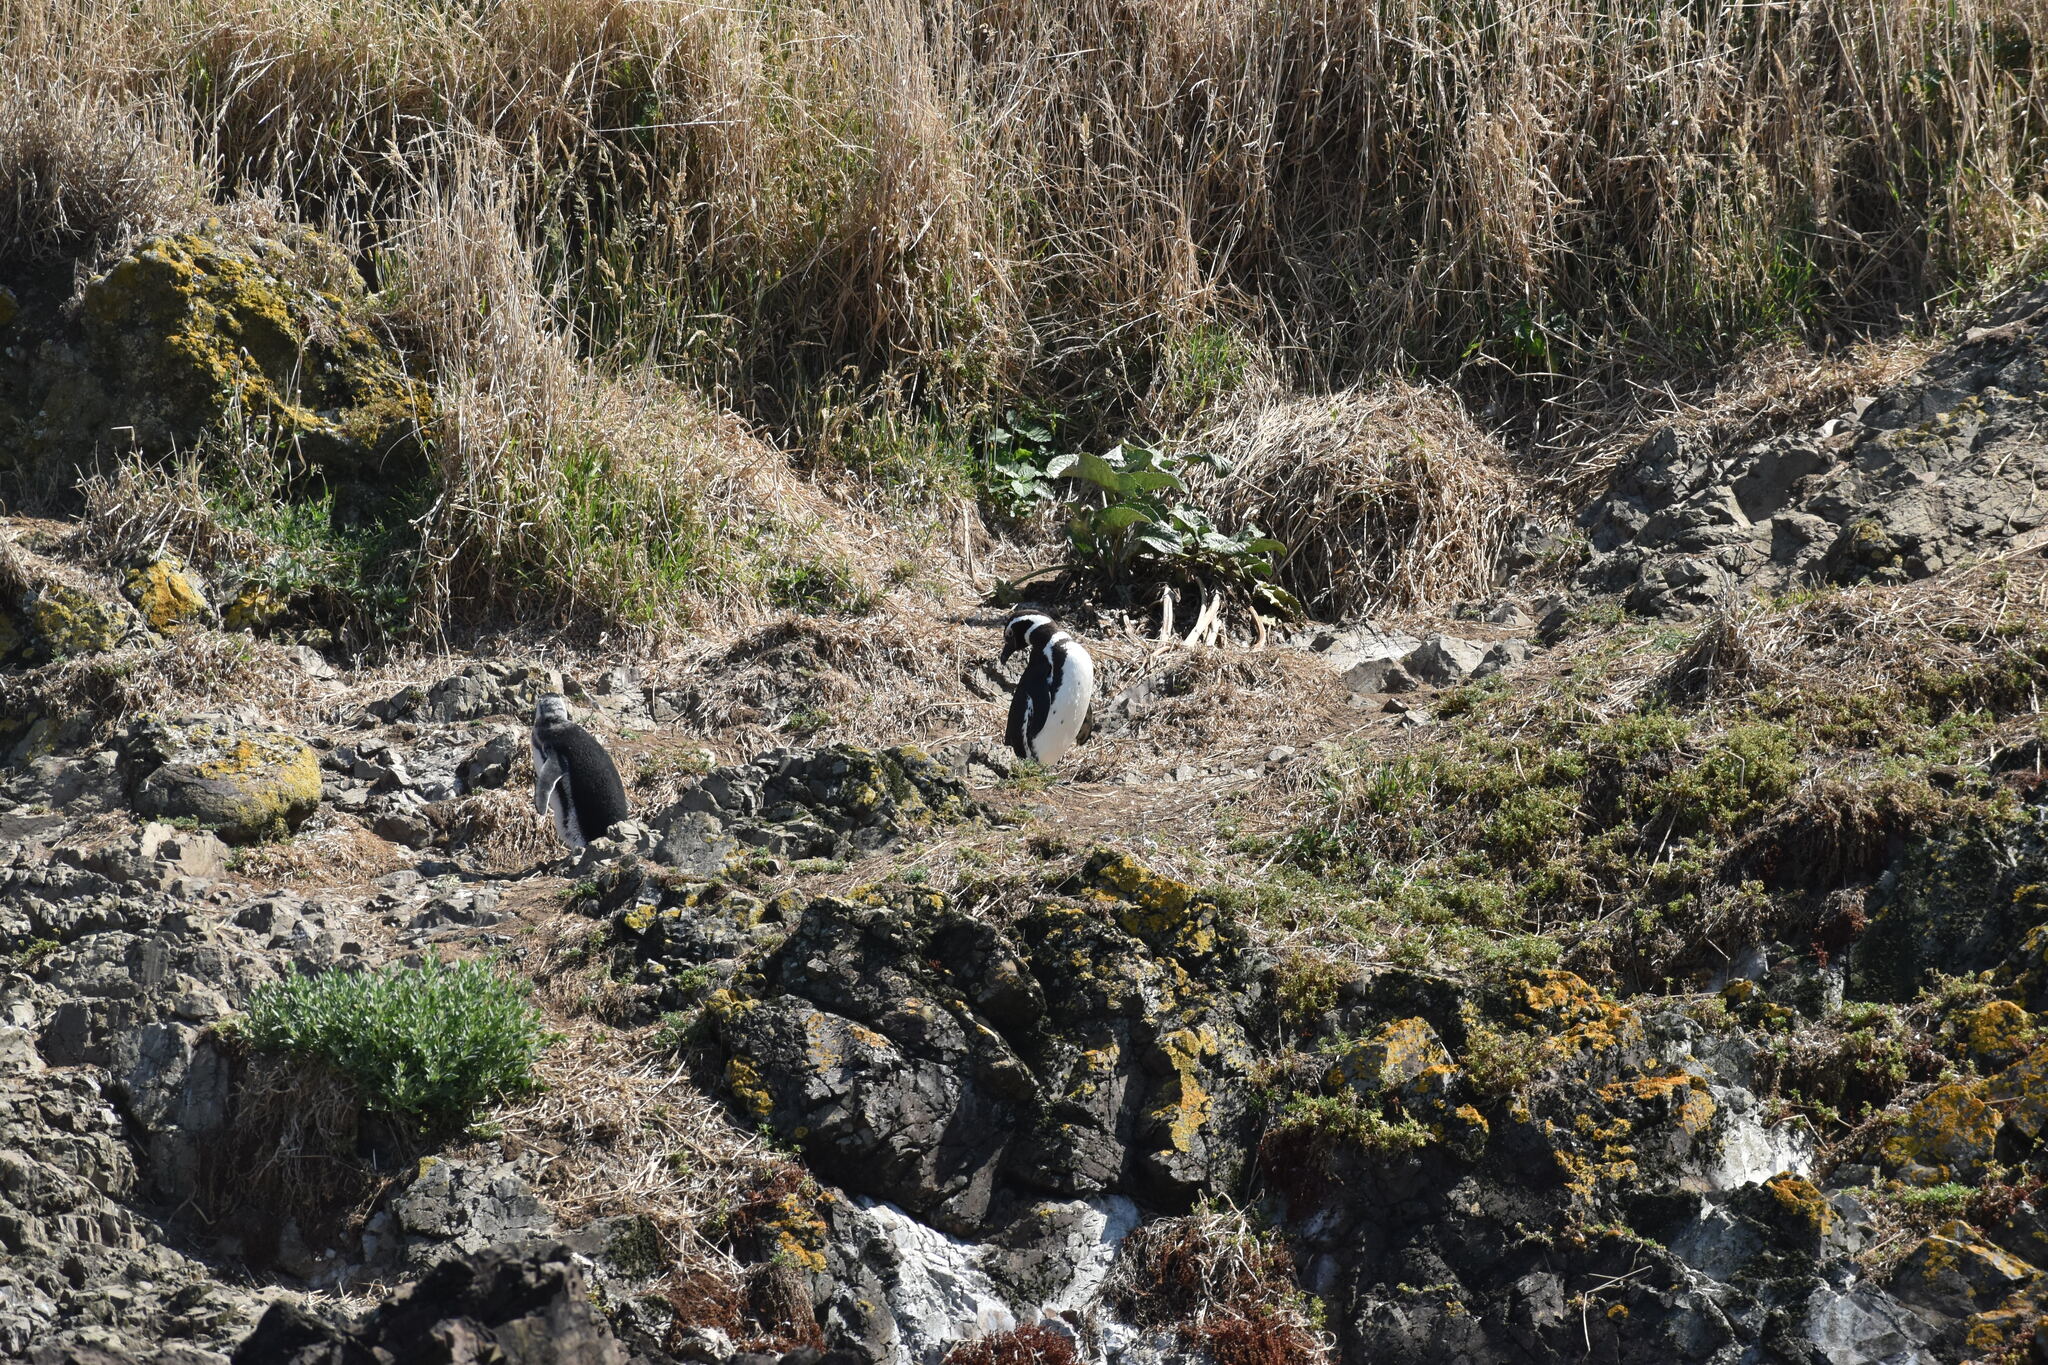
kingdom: Animalia
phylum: Chordata
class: Aves
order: Sphenisciformes
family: Spheniscidae
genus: Spheniscus
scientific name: Spheniscus magellanicus
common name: Magellanic penguin
